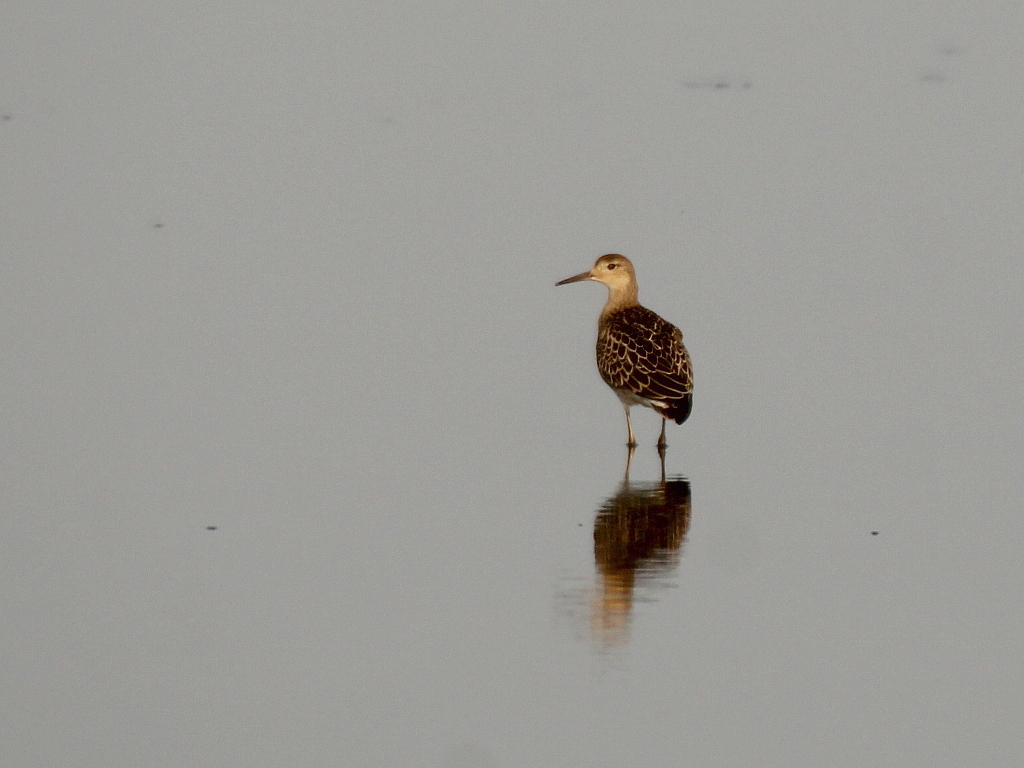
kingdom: Animalia
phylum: Chordata
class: Aves
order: Charadriiformes
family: Scolopacidae
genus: Calidris
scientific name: Calidris pugnax
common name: Ruff
